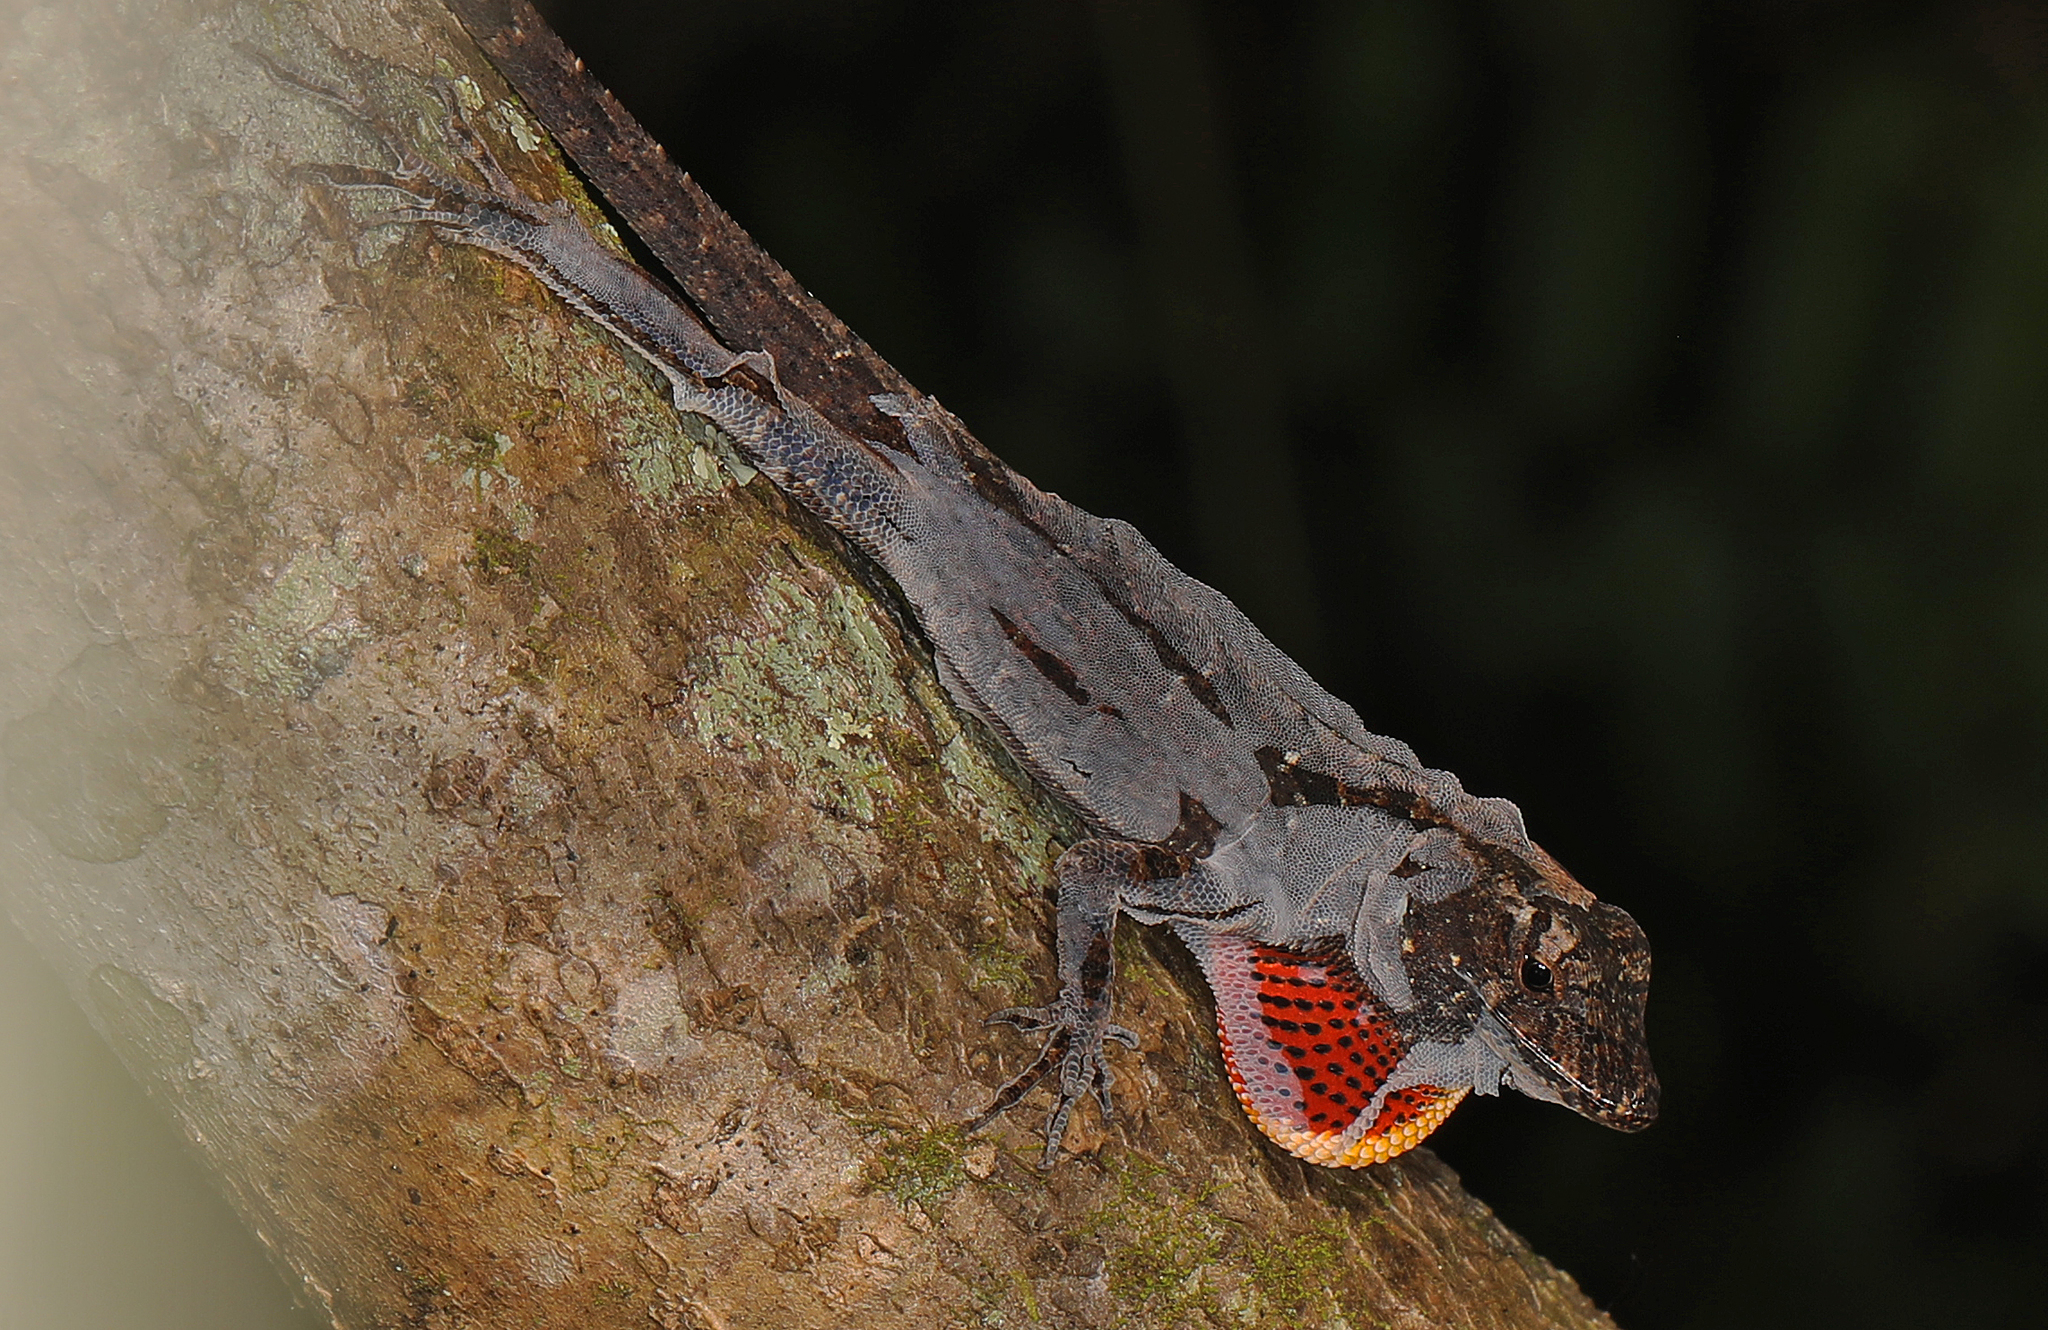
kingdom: Animalia
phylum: Chordata
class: Squamata
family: Dactyloidae
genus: Anolis
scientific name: Anolis sagrei
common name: Brown anole
